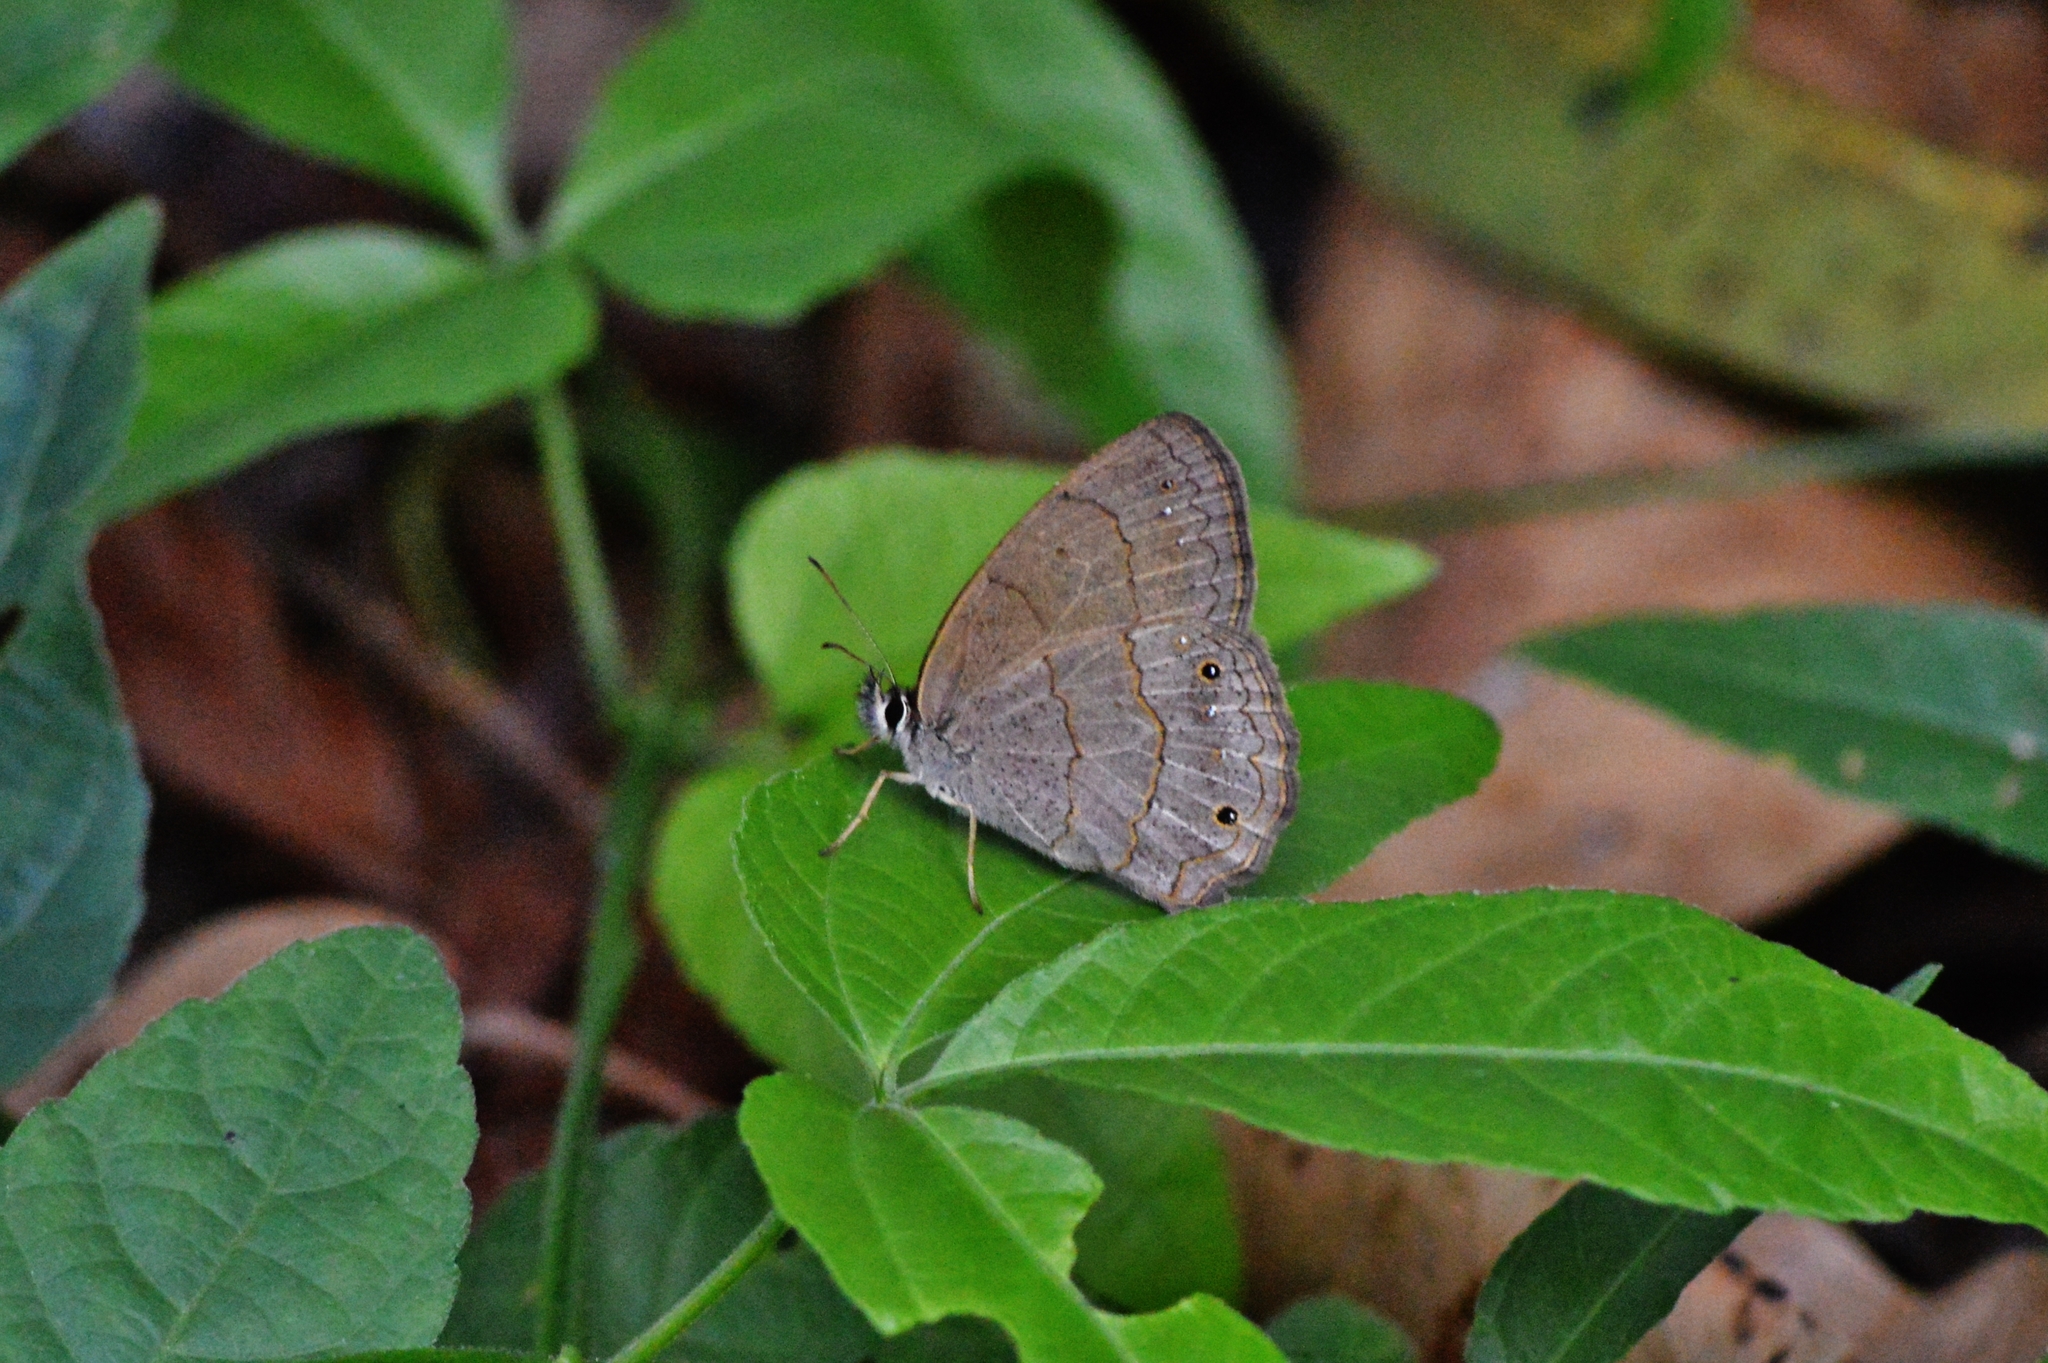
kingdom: Animalia
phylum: Arthropoda
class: Insecta
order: Lepidoptera
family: Nymphalidae
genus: Euptychia
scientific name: Euptychia Cissia eous
